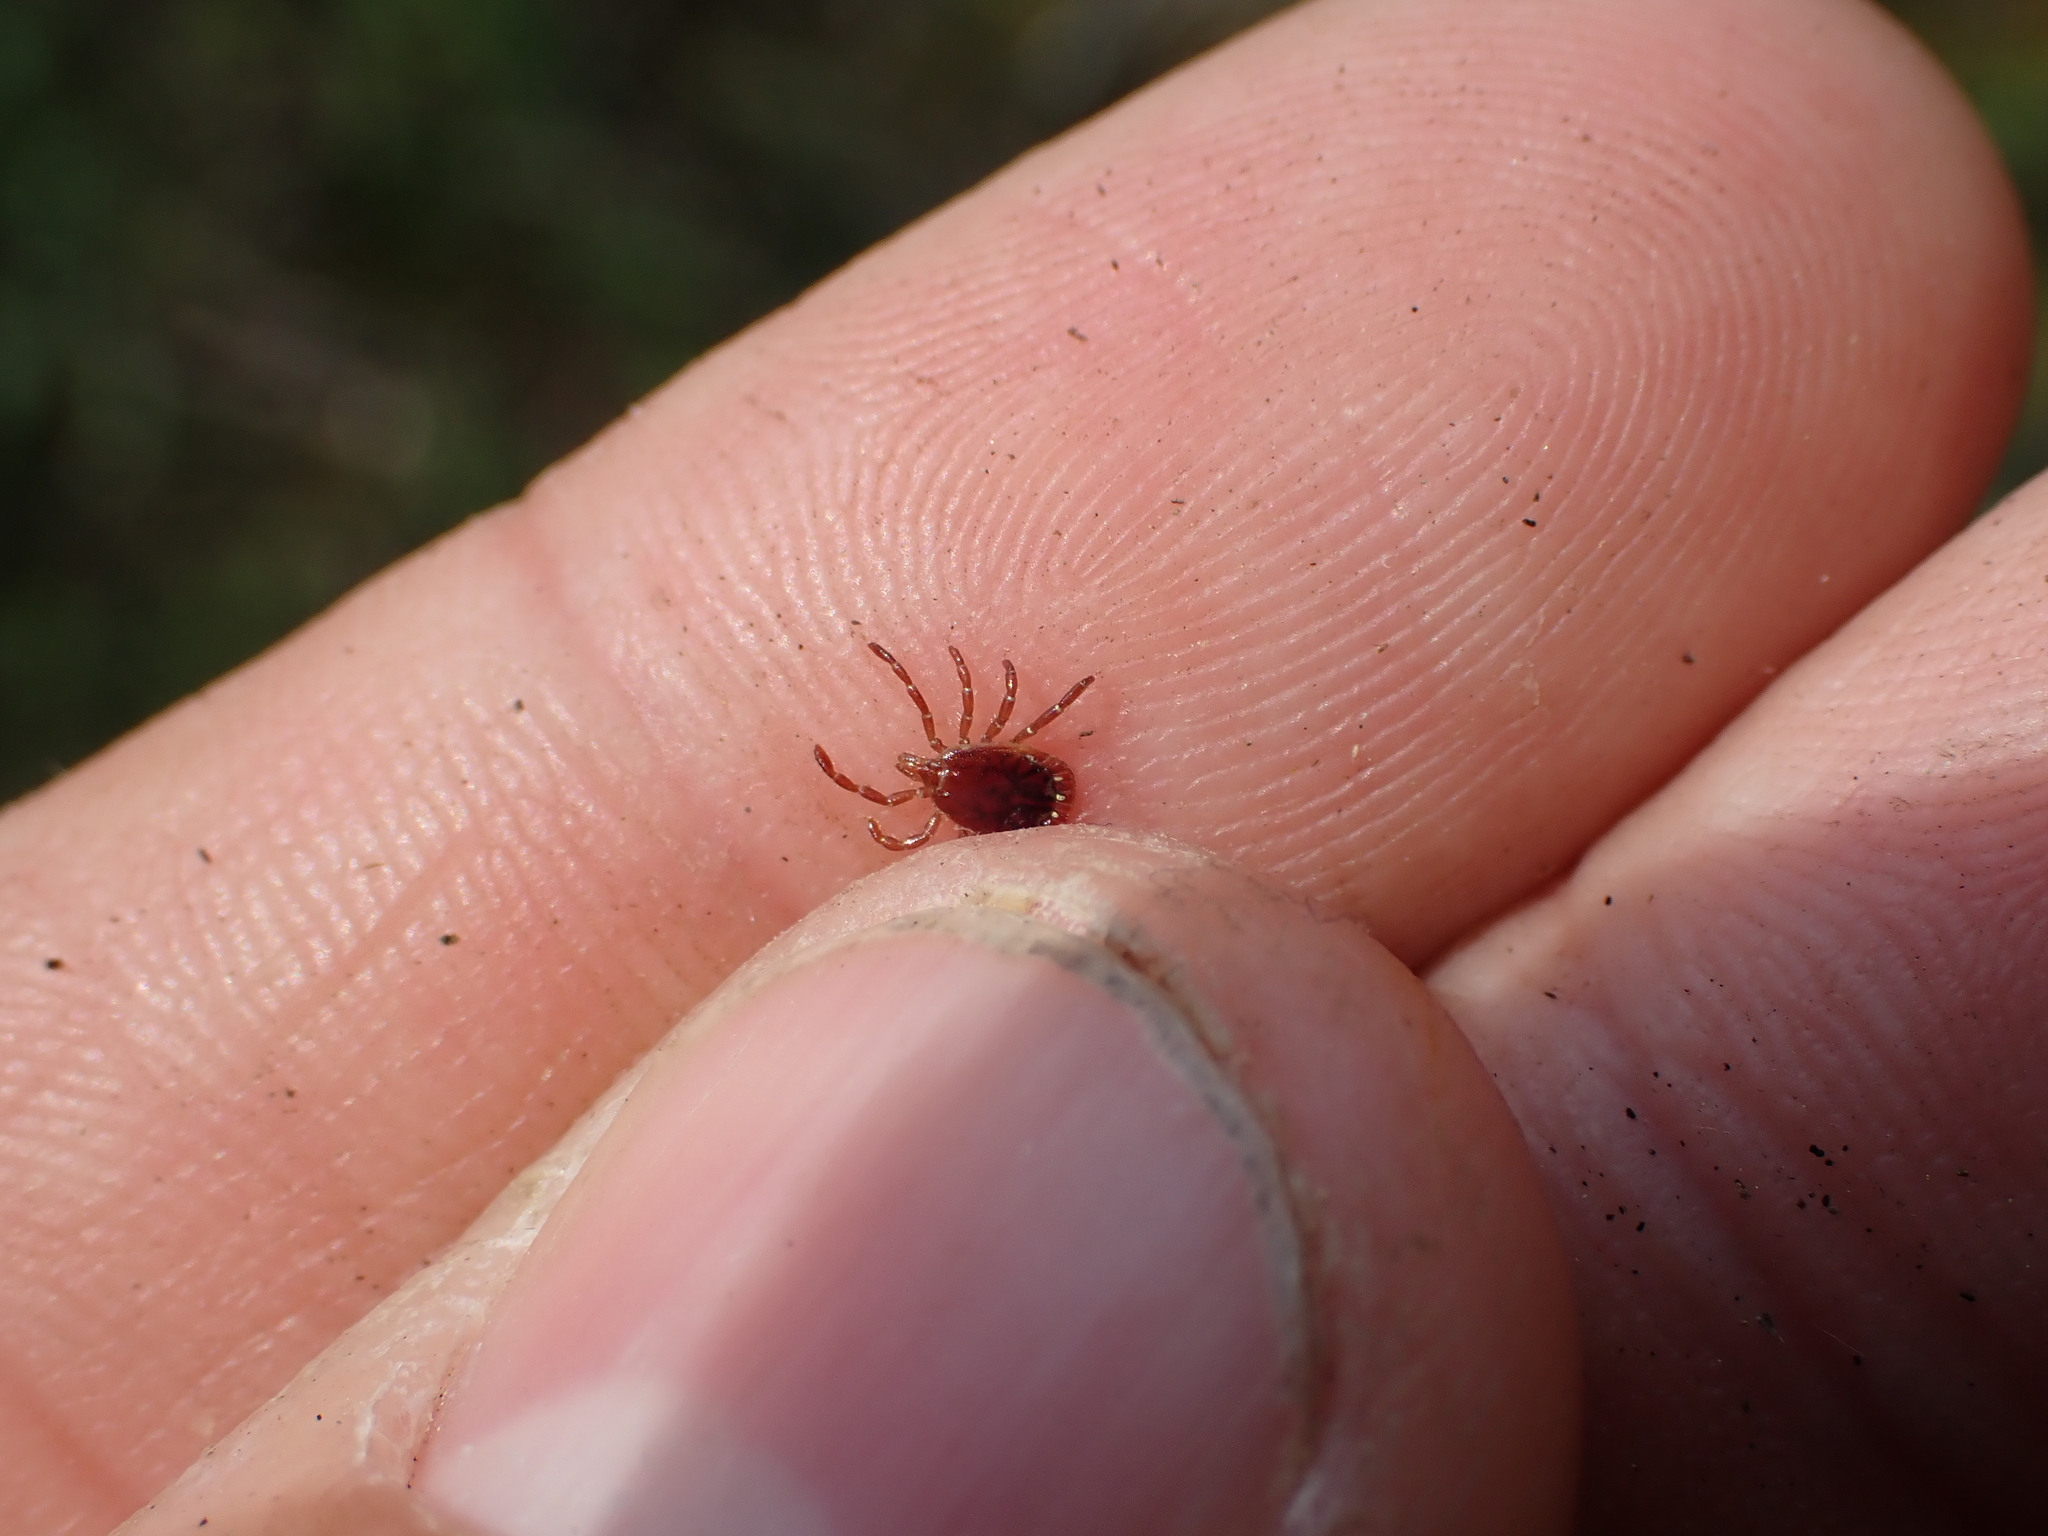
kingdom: Animalia
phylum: Arthropoda
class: Arachnida
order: Ixodida
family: Ixodidae
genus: Amblyomma
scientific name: Amblyomma americanum
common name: Lone star tick
